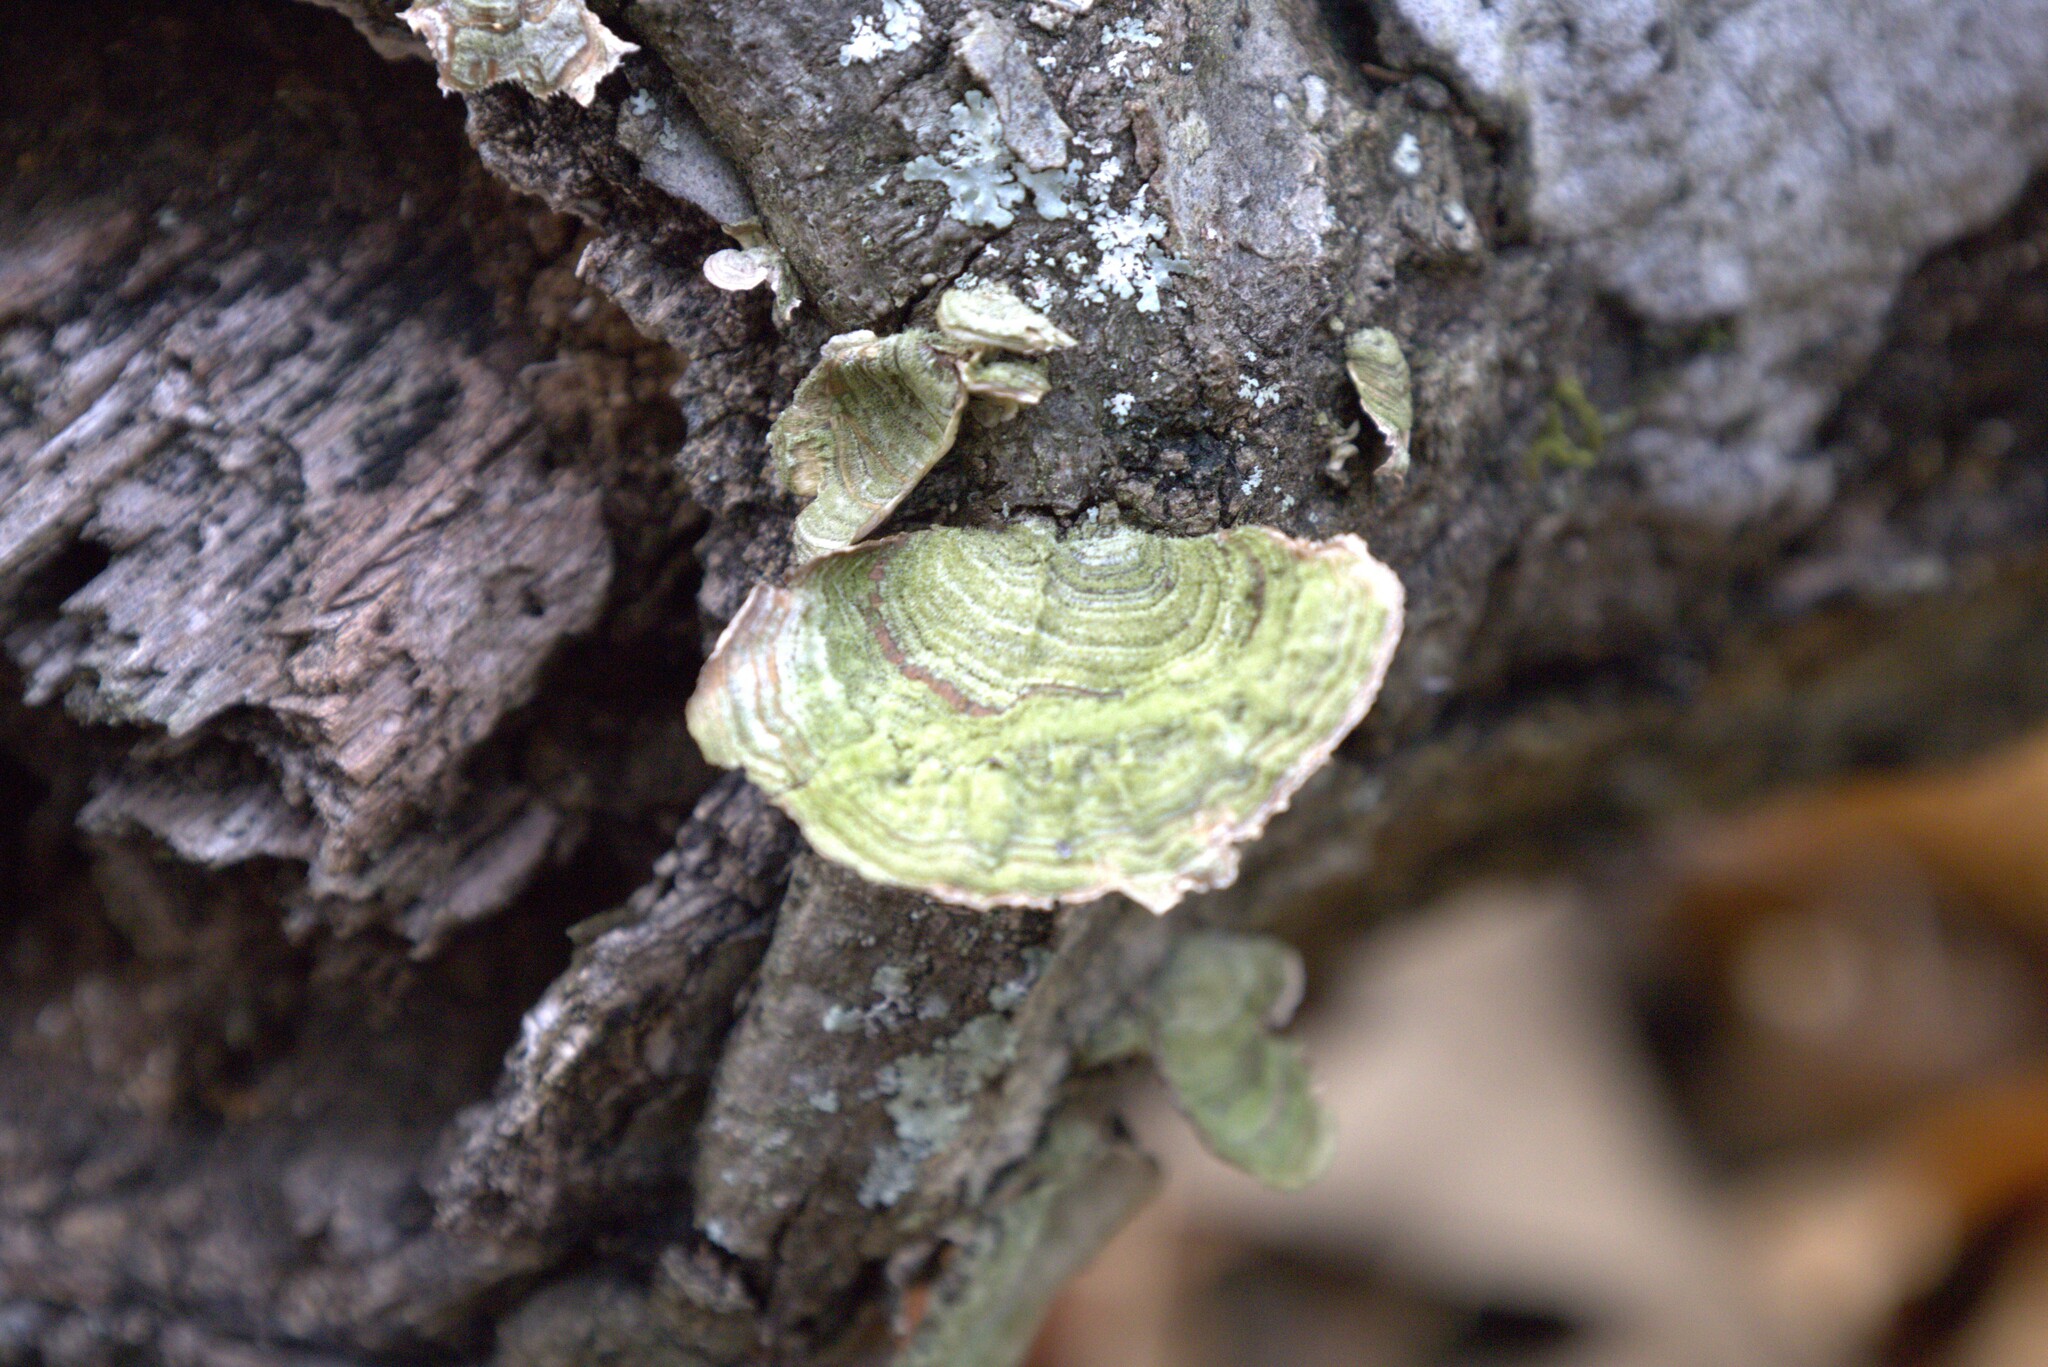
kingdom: Fungi
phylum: Basidiomycota
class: Agaricomycetes
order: Russulales
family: Stereaceae
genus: Stereum
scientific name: Stereum ostrea
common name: False turkeytail
